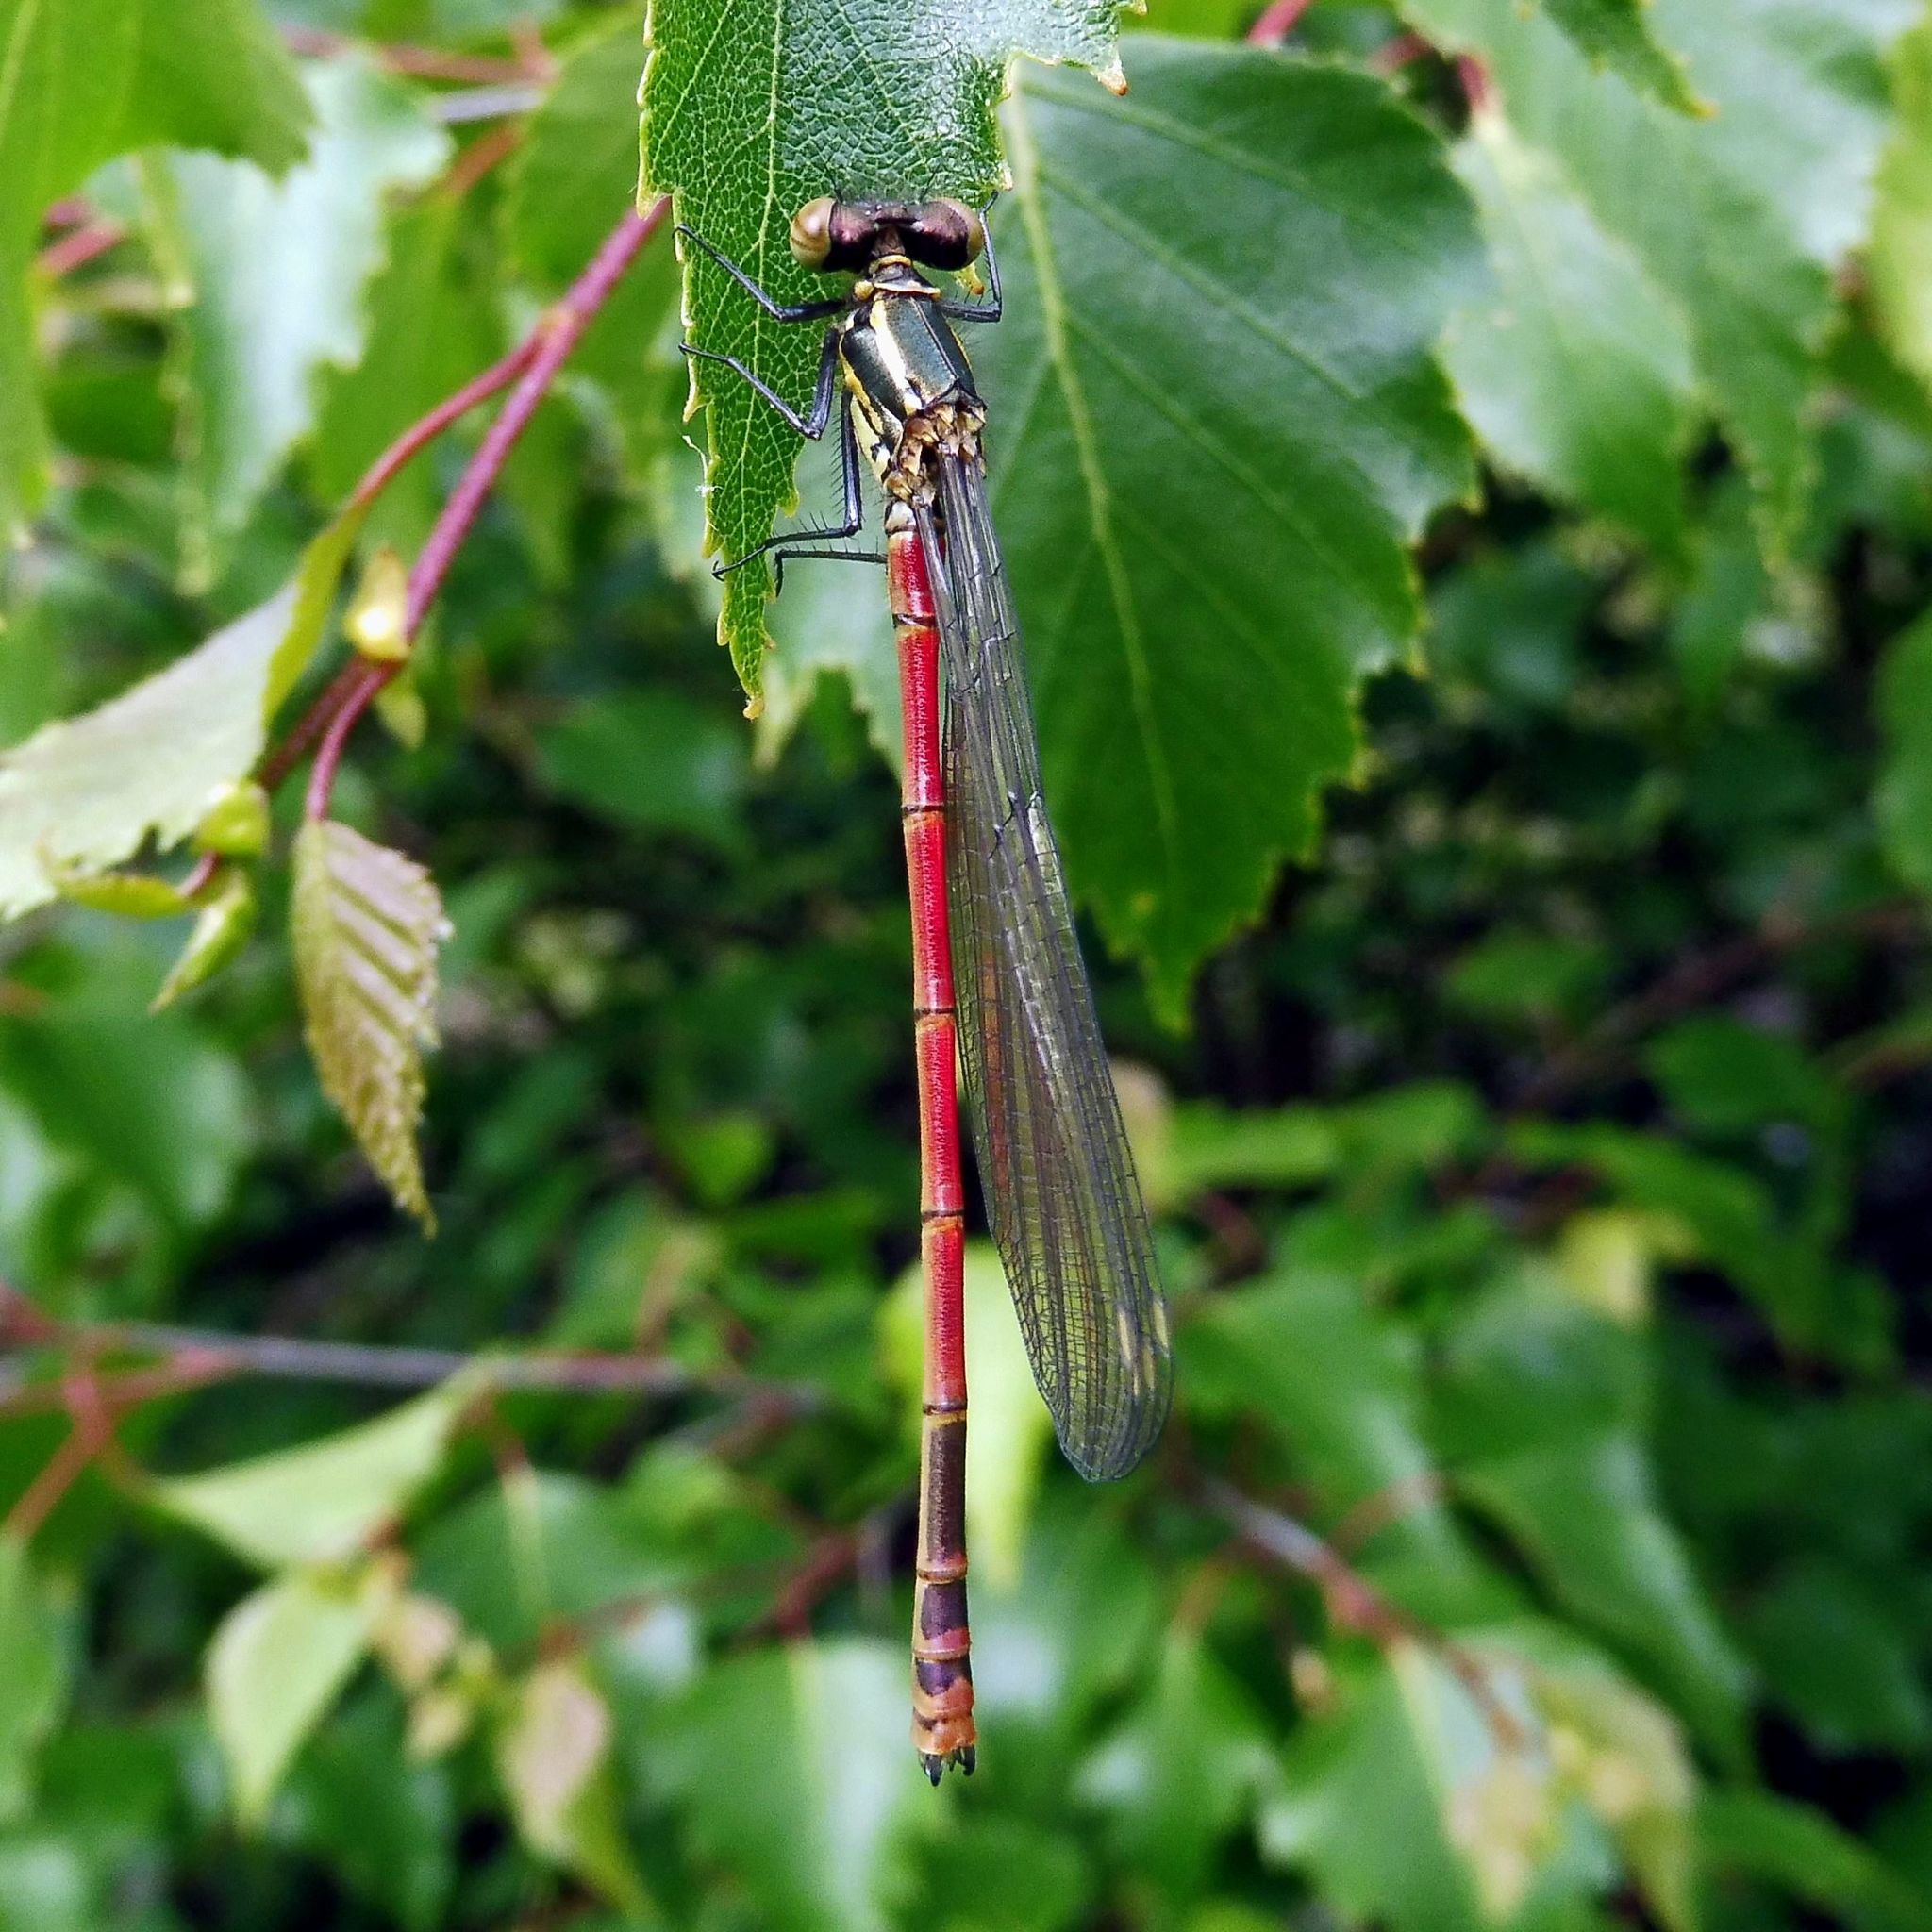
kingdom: Animalia
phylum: Arthropoda
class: Insecta
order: Odonata
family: Coenagrionidae
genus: Pyrrhosoma
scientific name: Pyrrhosoma nymphula
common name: Large red damsel
